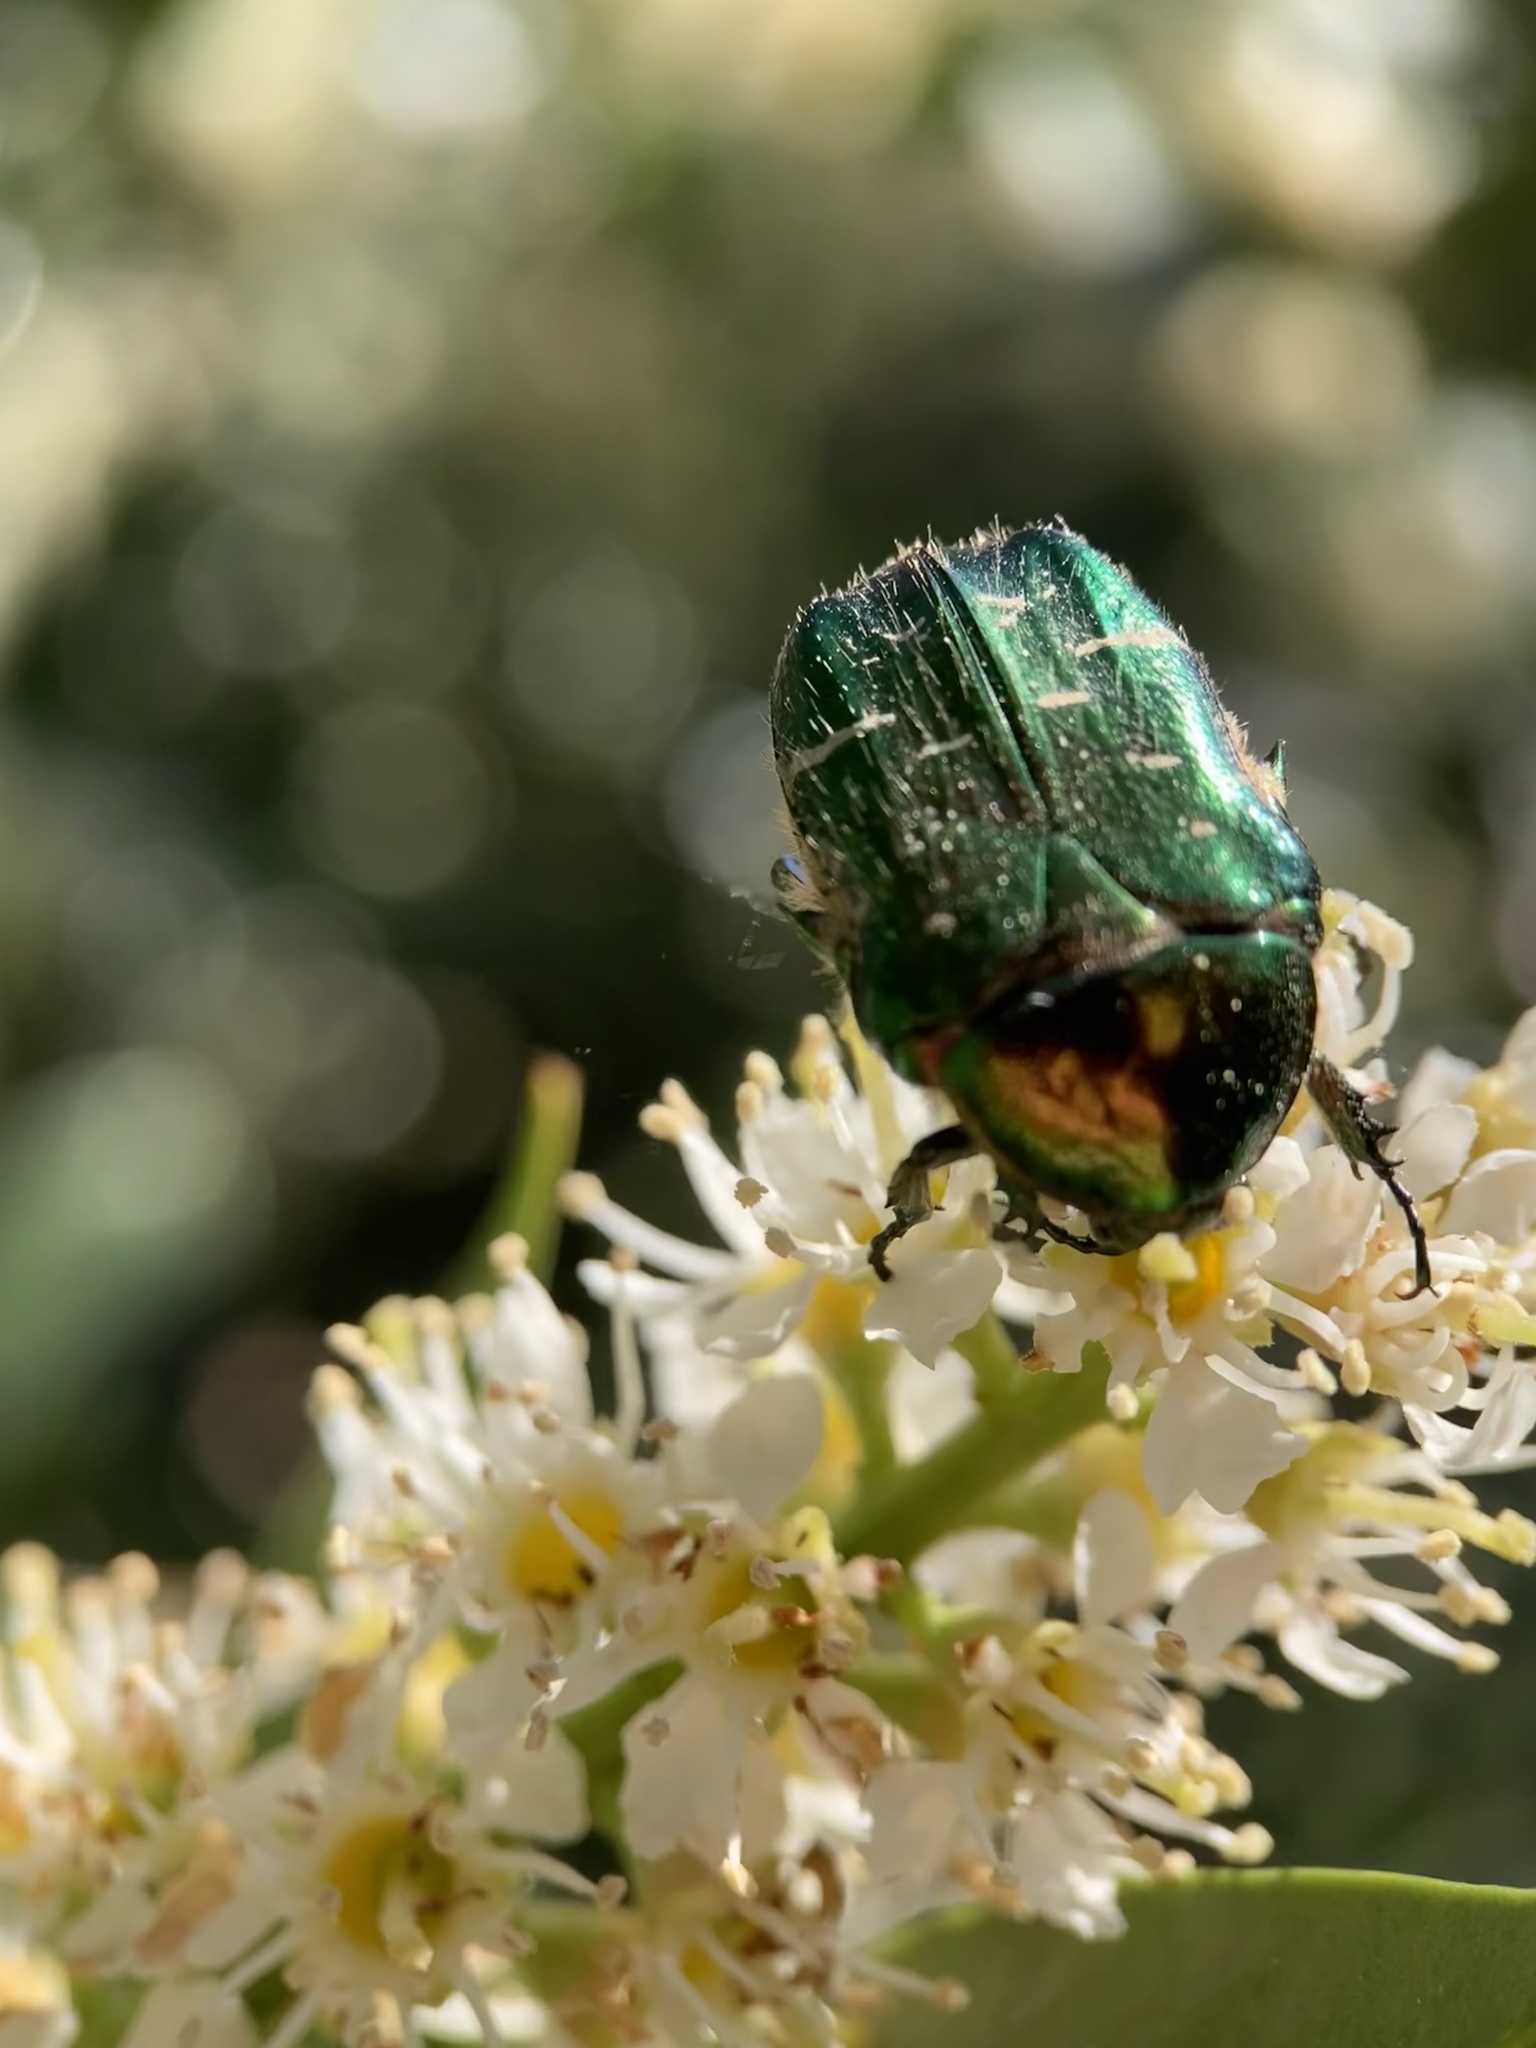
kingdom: Animalia
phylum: Arthropoda
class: Insecta
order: Coleoptera
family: Scarabaeidae
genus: Cetonia
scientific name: Cetonia aurata
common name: Rose chafer
